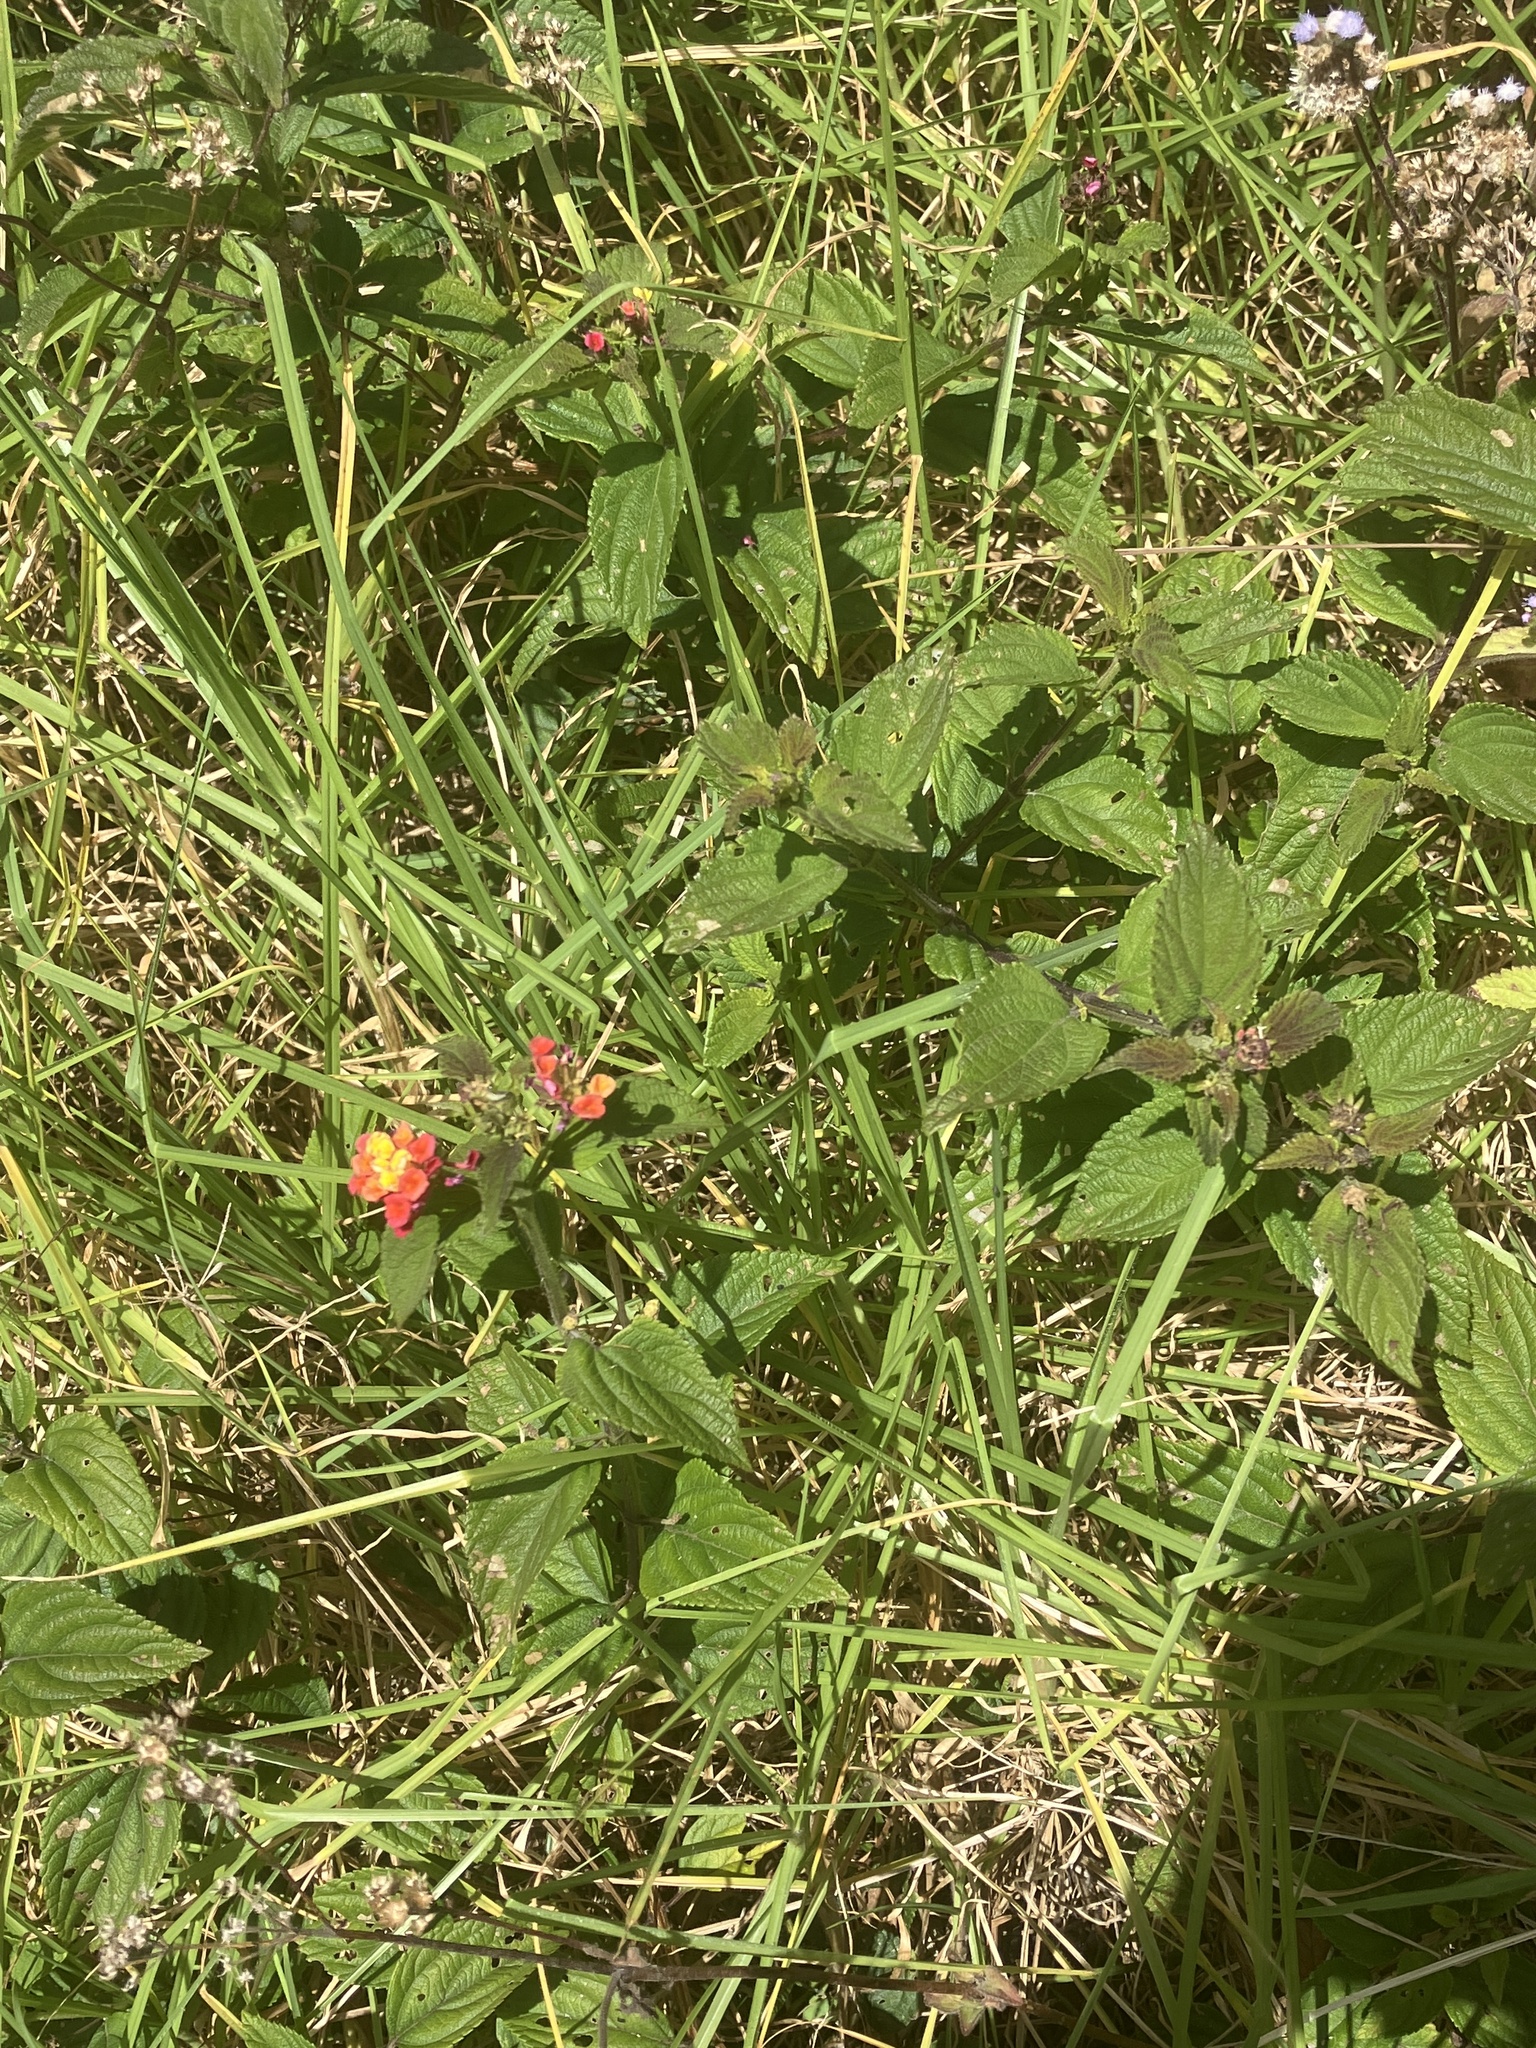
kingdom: Plantae
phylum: Tracheophyta
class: Magnoliopsida
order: Lamiales
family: Verbenaceae
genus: Lantana
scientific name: Lantana camara
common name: Lantana
